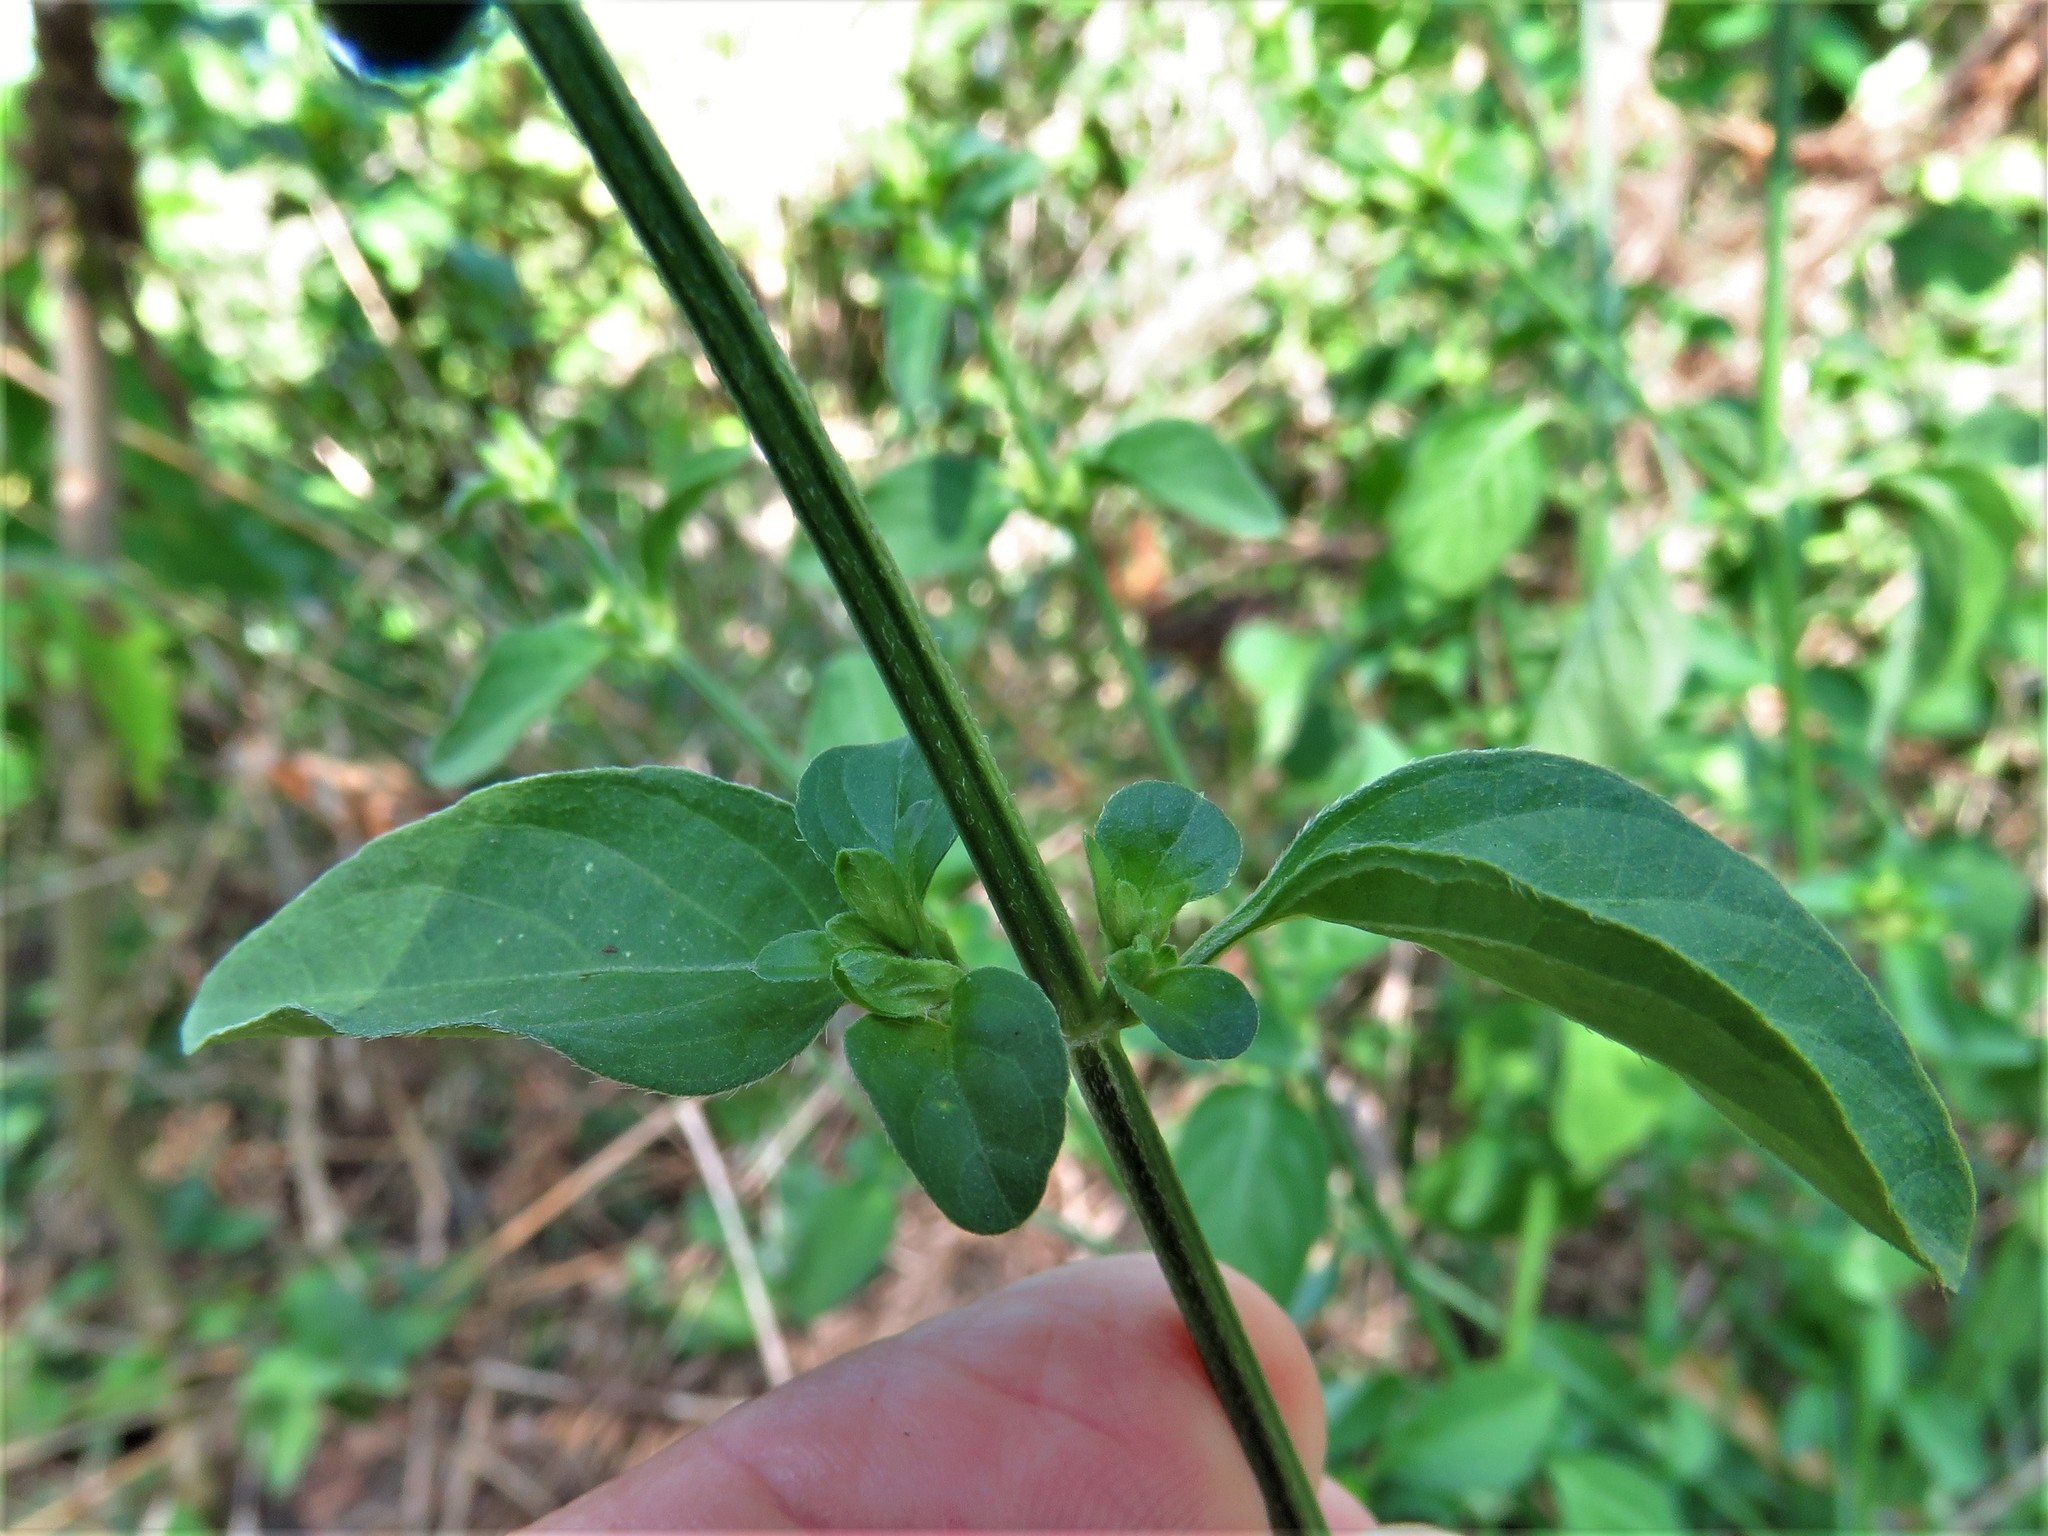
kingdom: Plantae
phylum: Tracheophyta
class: Magnoliopsida
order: Lamiales
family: Acanthaceae
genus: Dicliptera
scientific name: Dicliptera brachiata
